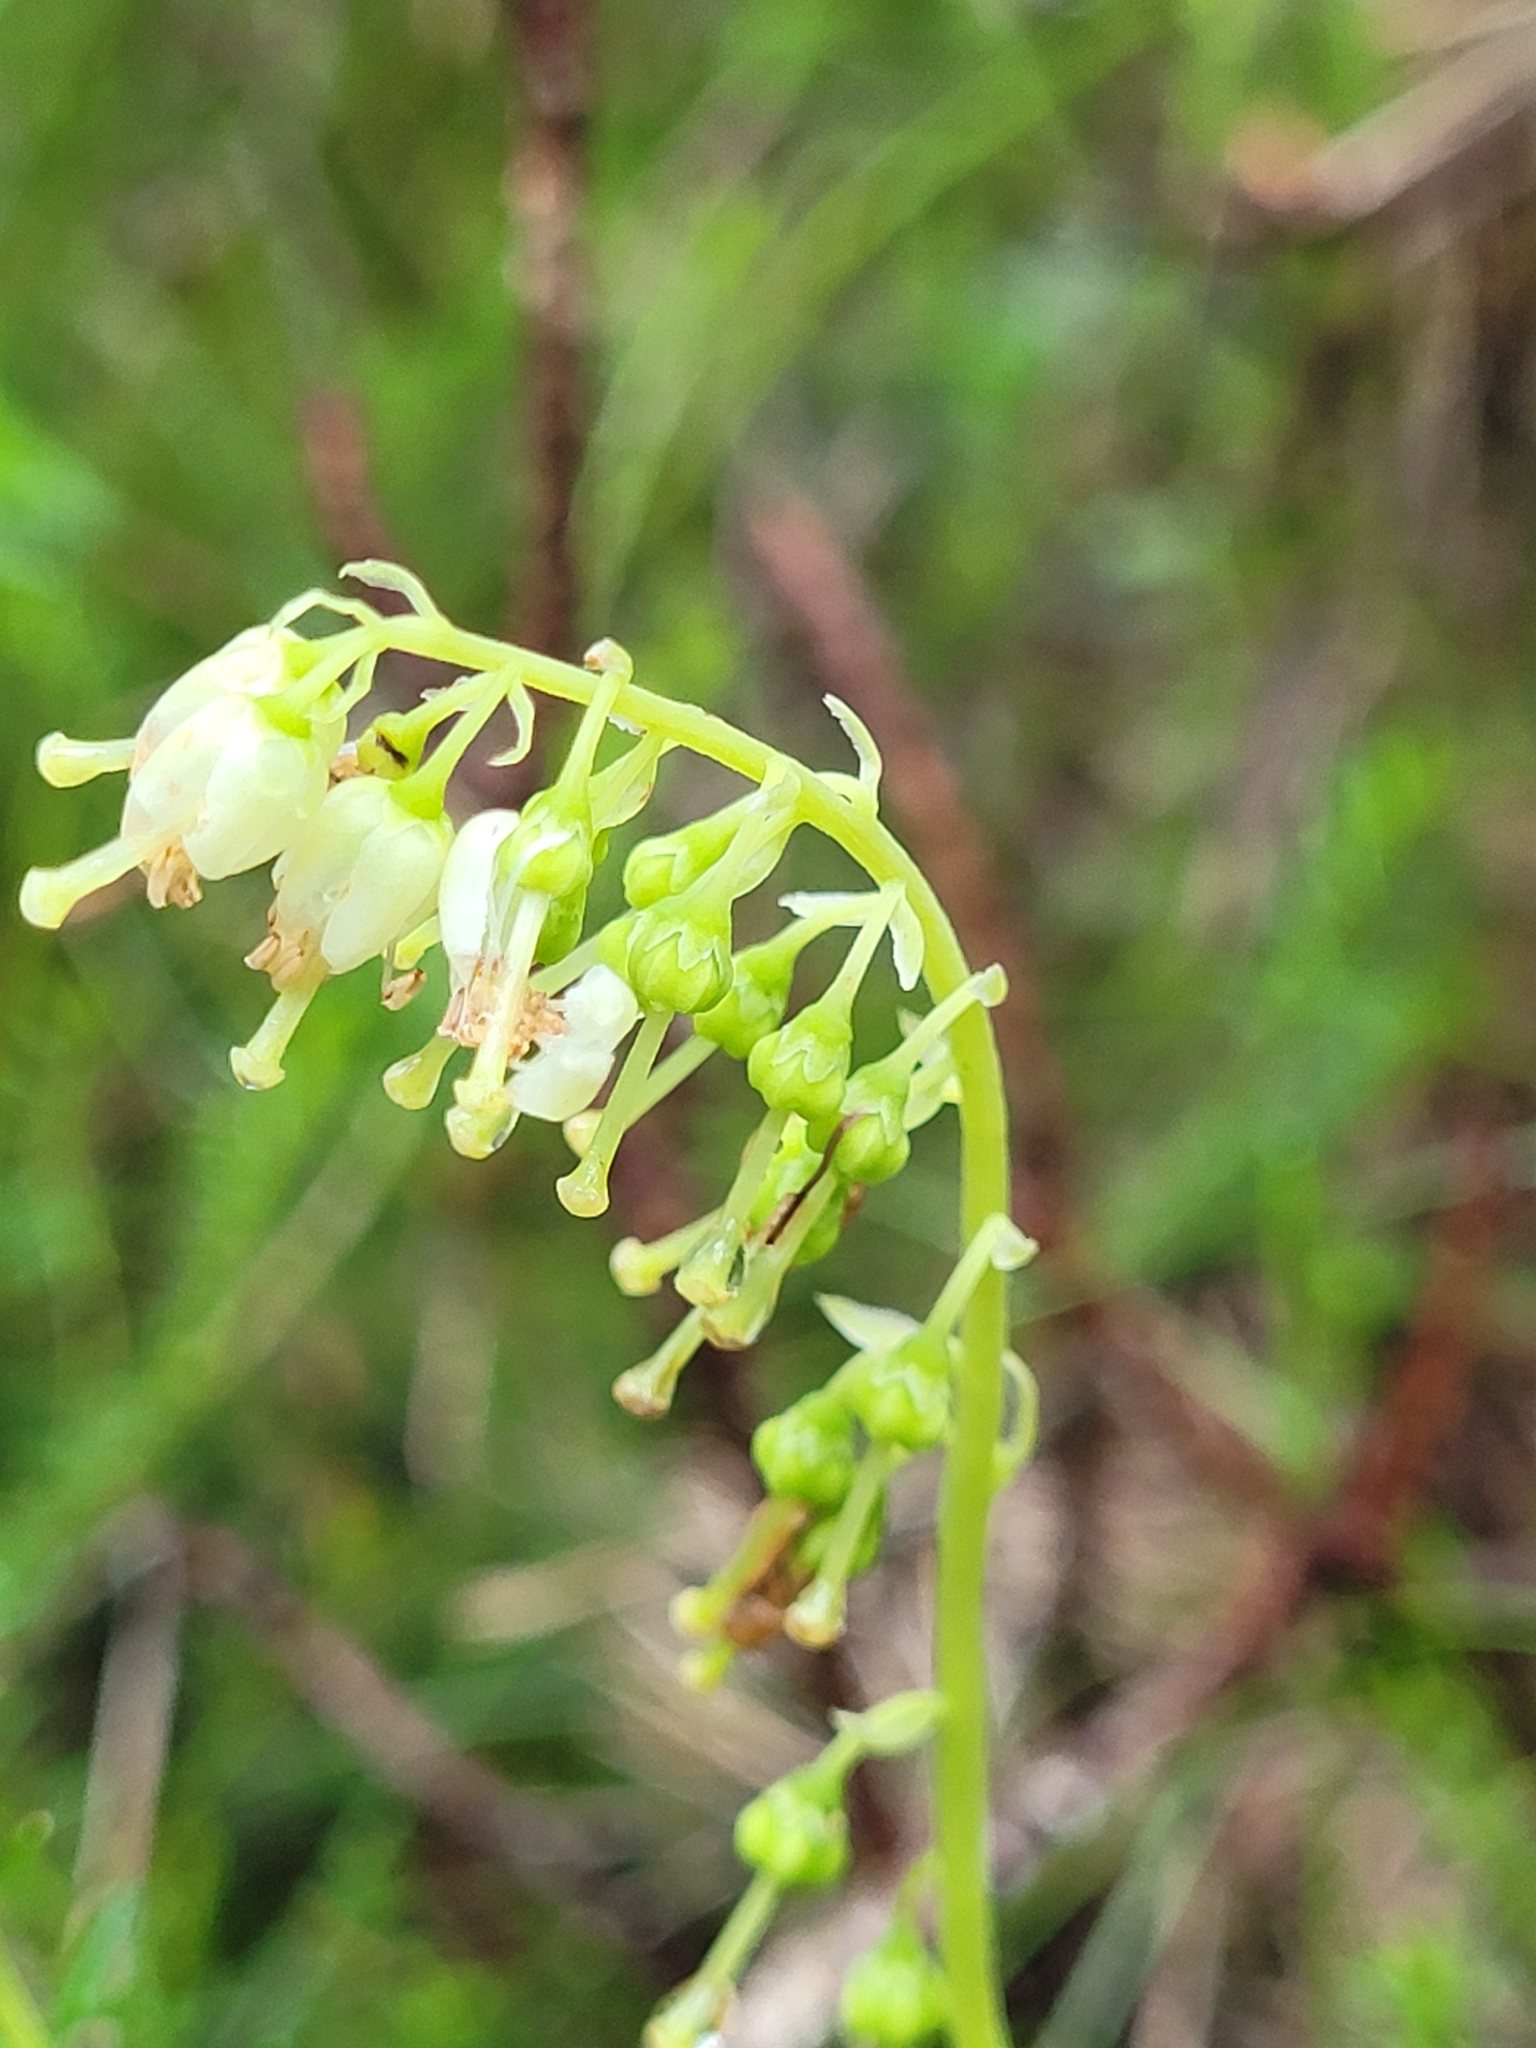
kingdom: Plantae
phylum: Tracheophyta
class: Magnoliopsida
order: Ericales
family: Ericaceae
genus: Orthilia
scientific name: Orthilia secunda
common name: One-sided orthilia
